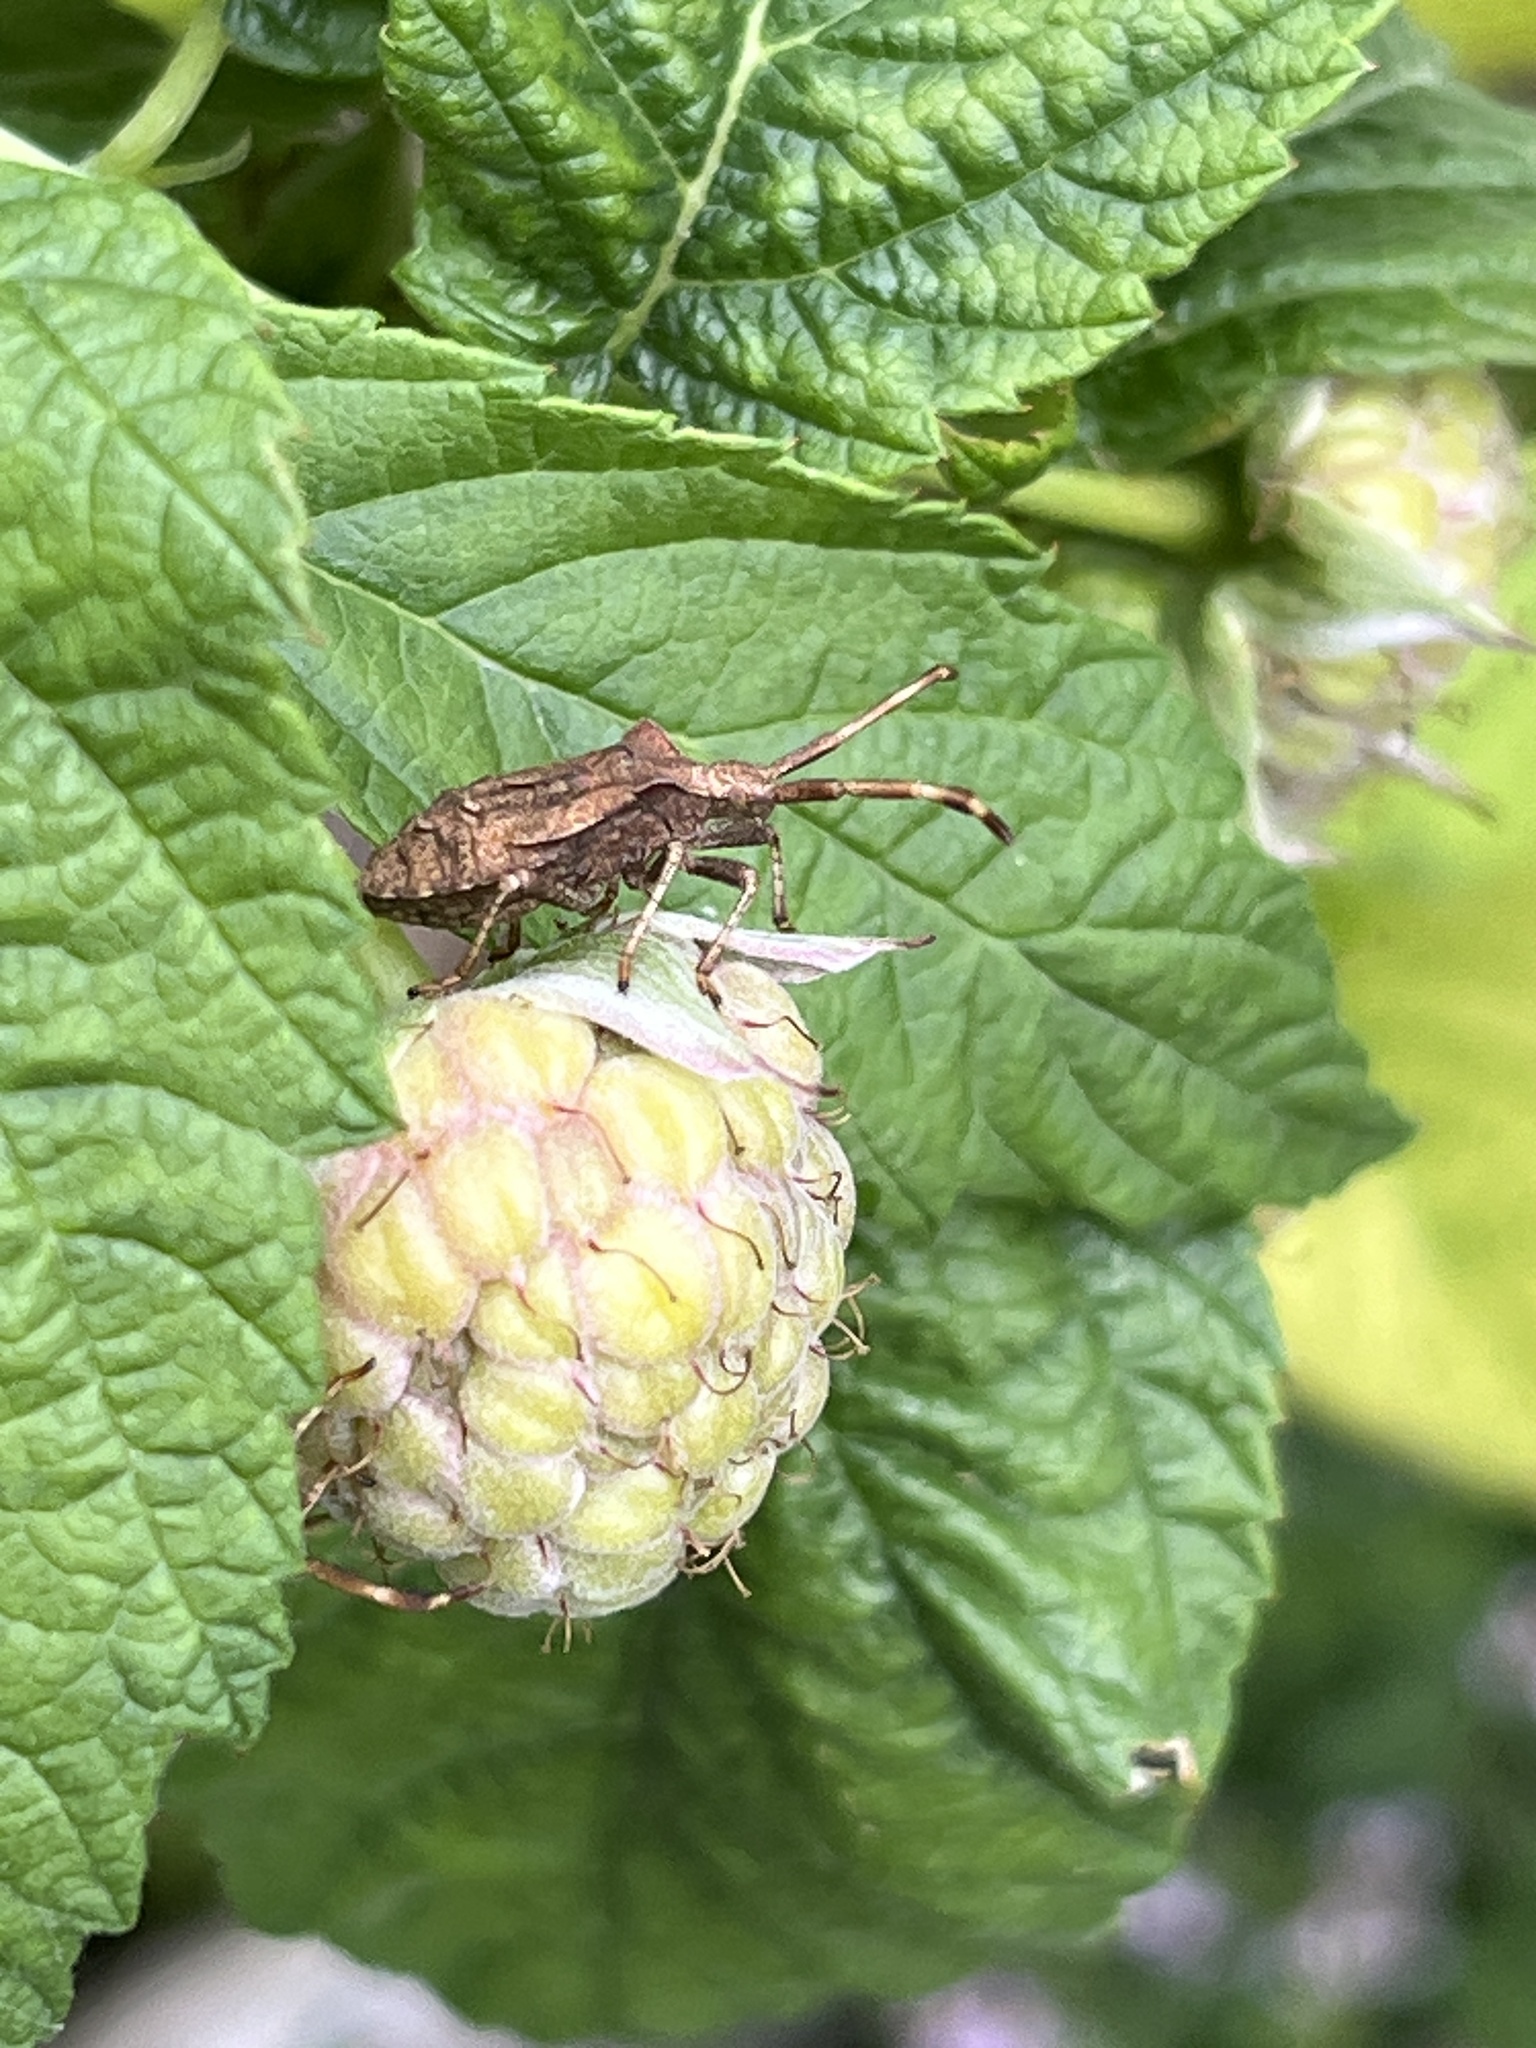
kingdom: Animalia
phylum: Arthropoda
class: Insecta
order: Hemiptera
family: Coreidae
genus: Coreus
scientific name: Coreus marginatus
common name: Dock bug
